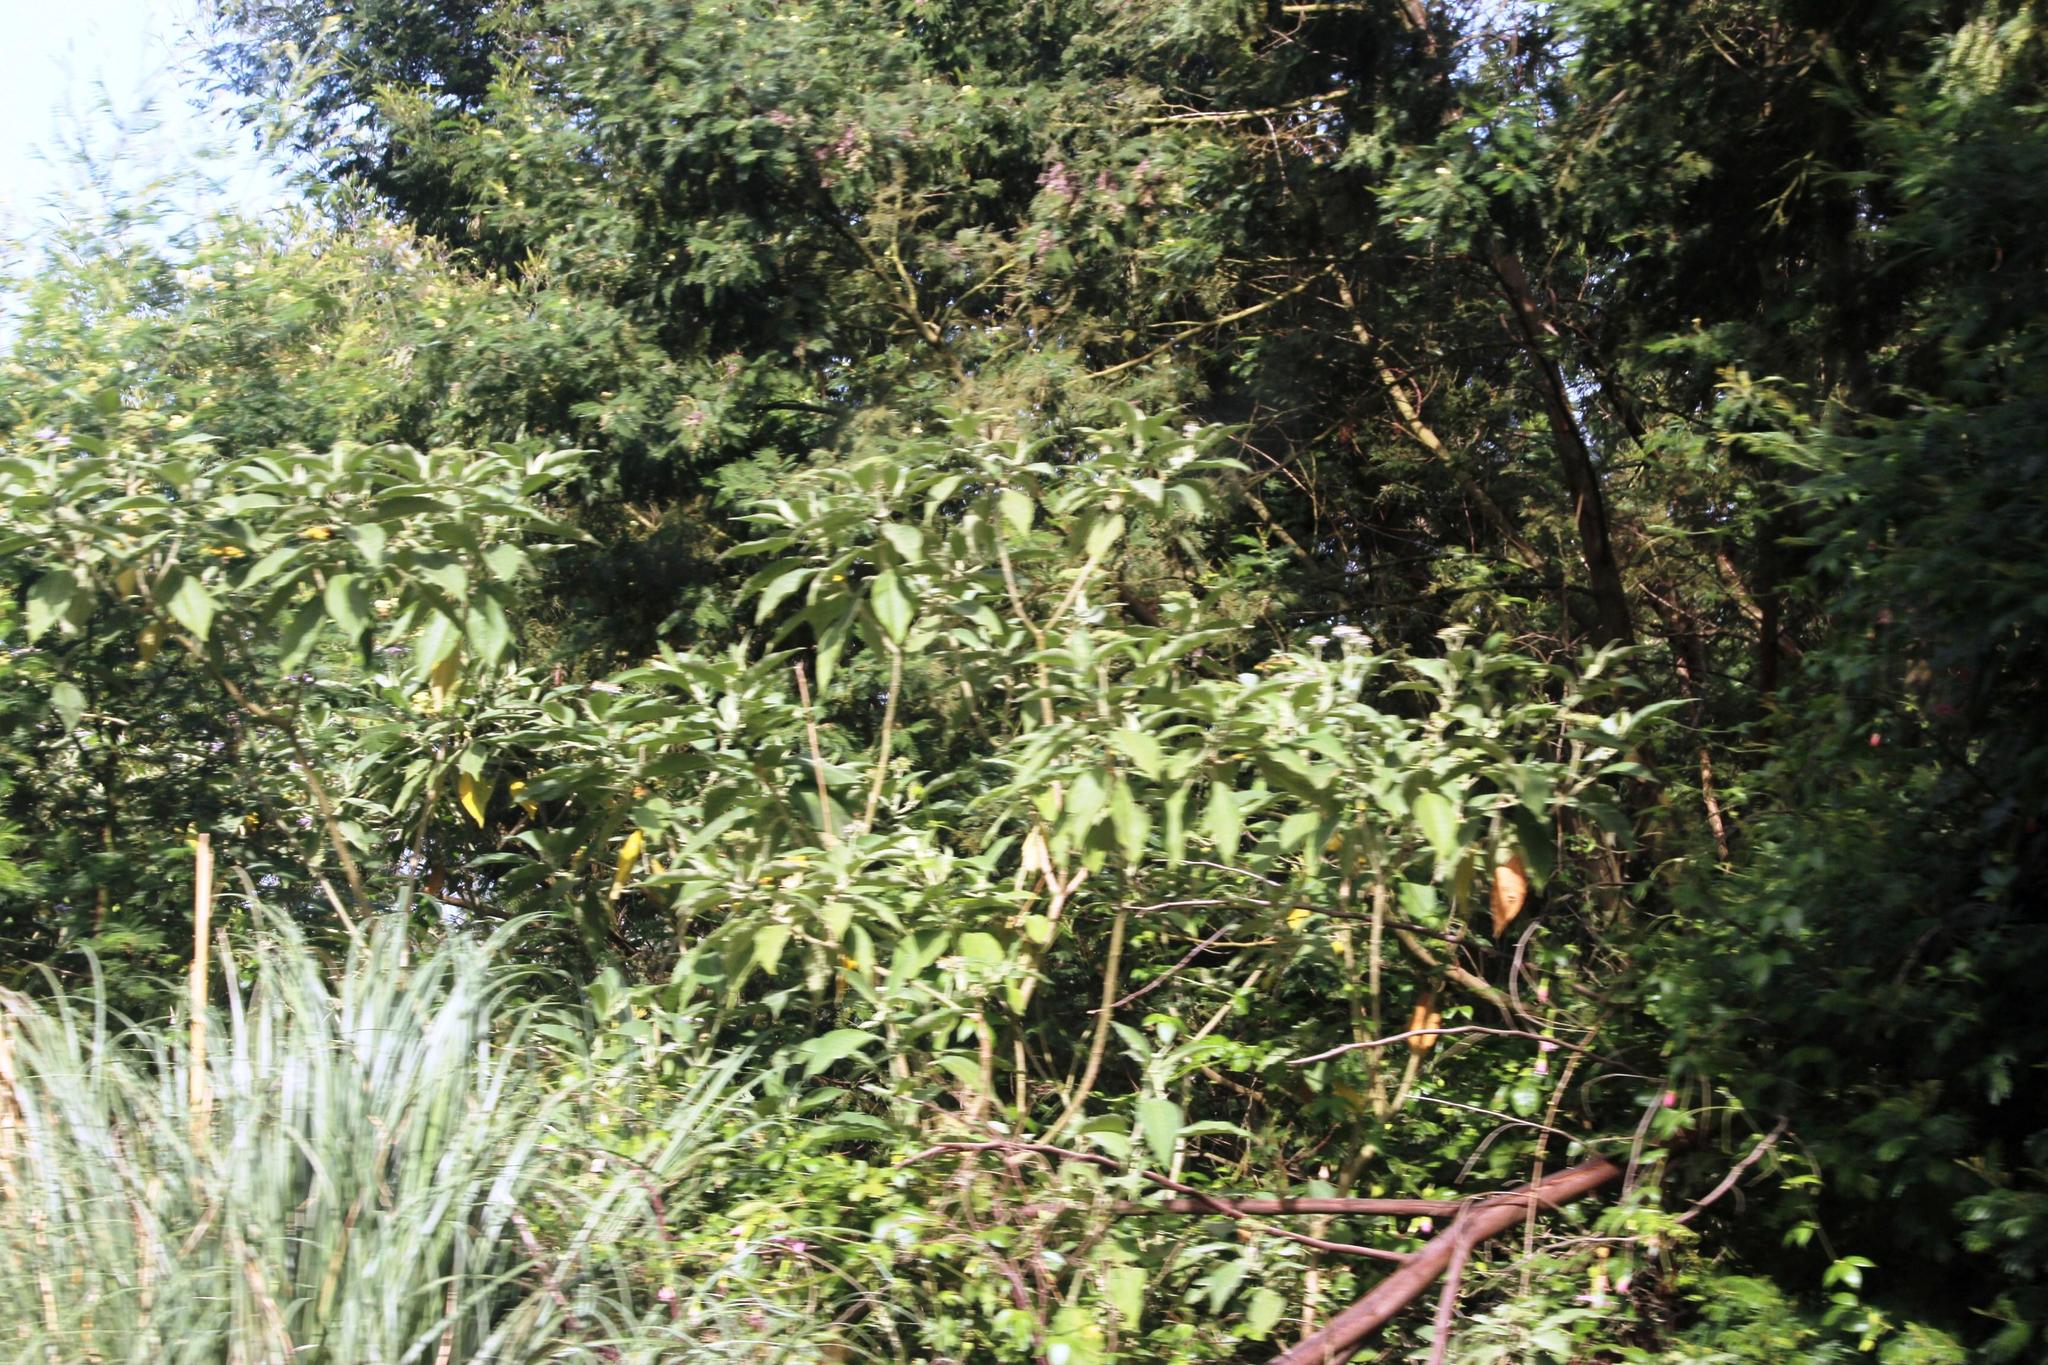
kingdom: Plantae
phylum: Tracheophyta
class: Magnoliopsida
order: Solanales
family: Solanaceae
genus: Solanum
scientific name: Solanum mauritianum
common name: Earleaf nightshade
